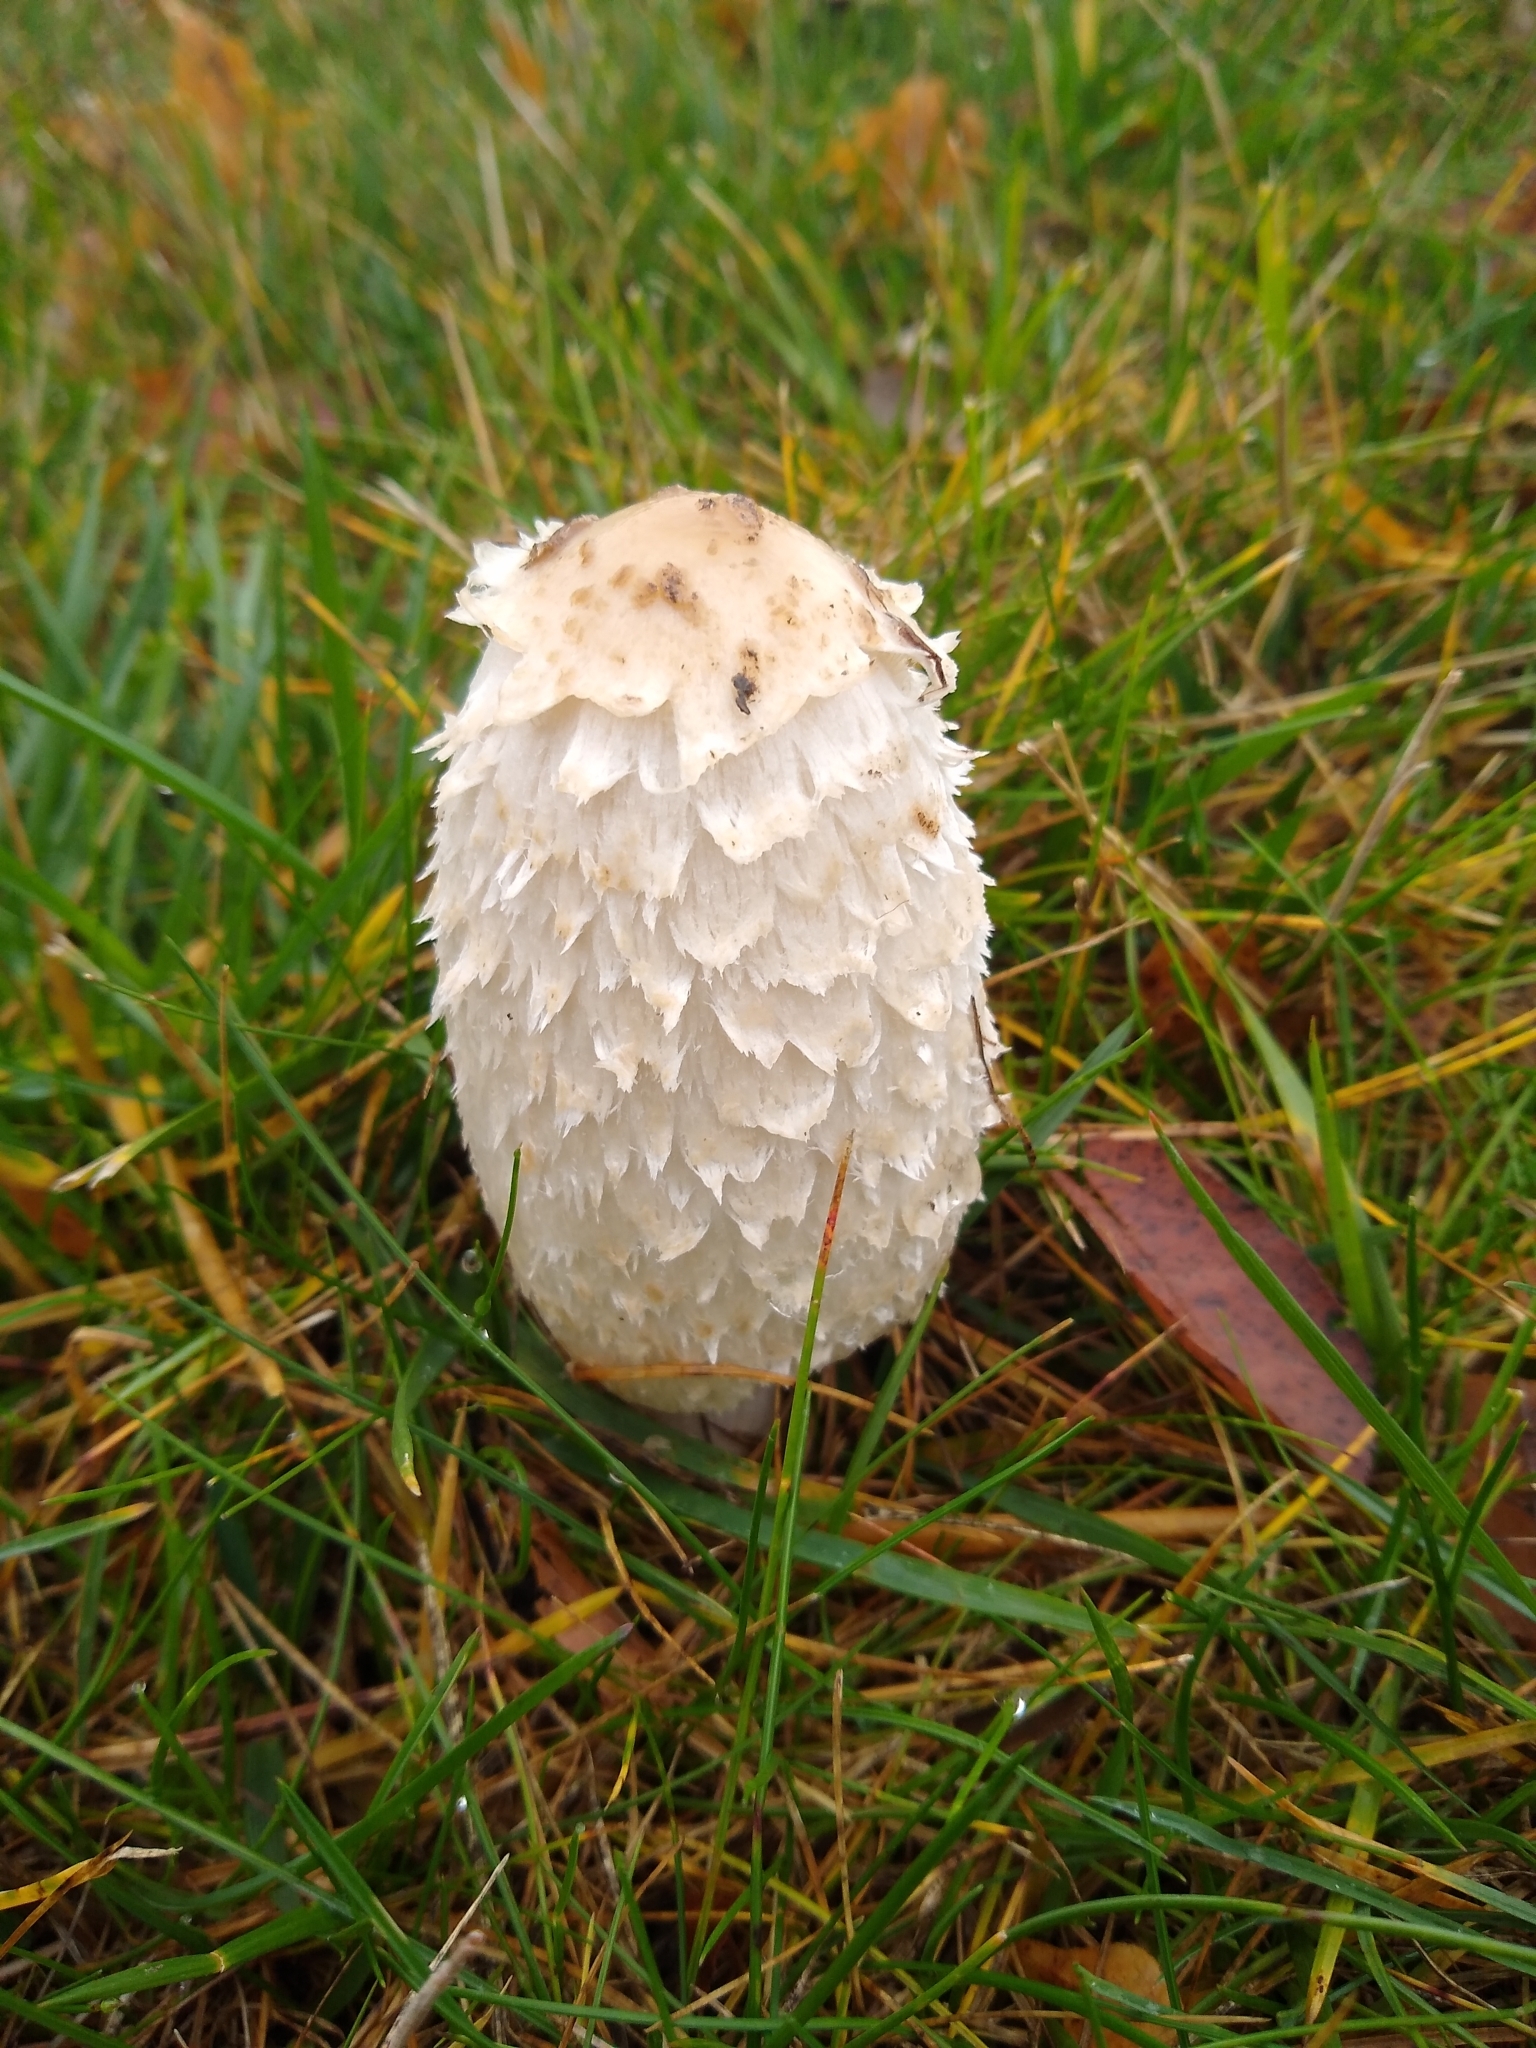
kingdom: Fungi
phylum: Basidiomycota
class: Agaricomycetes
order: Agaricales
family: Agaricaceae
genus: Coprinus
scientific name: Coprinus comatus
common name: Lawyer's wig
